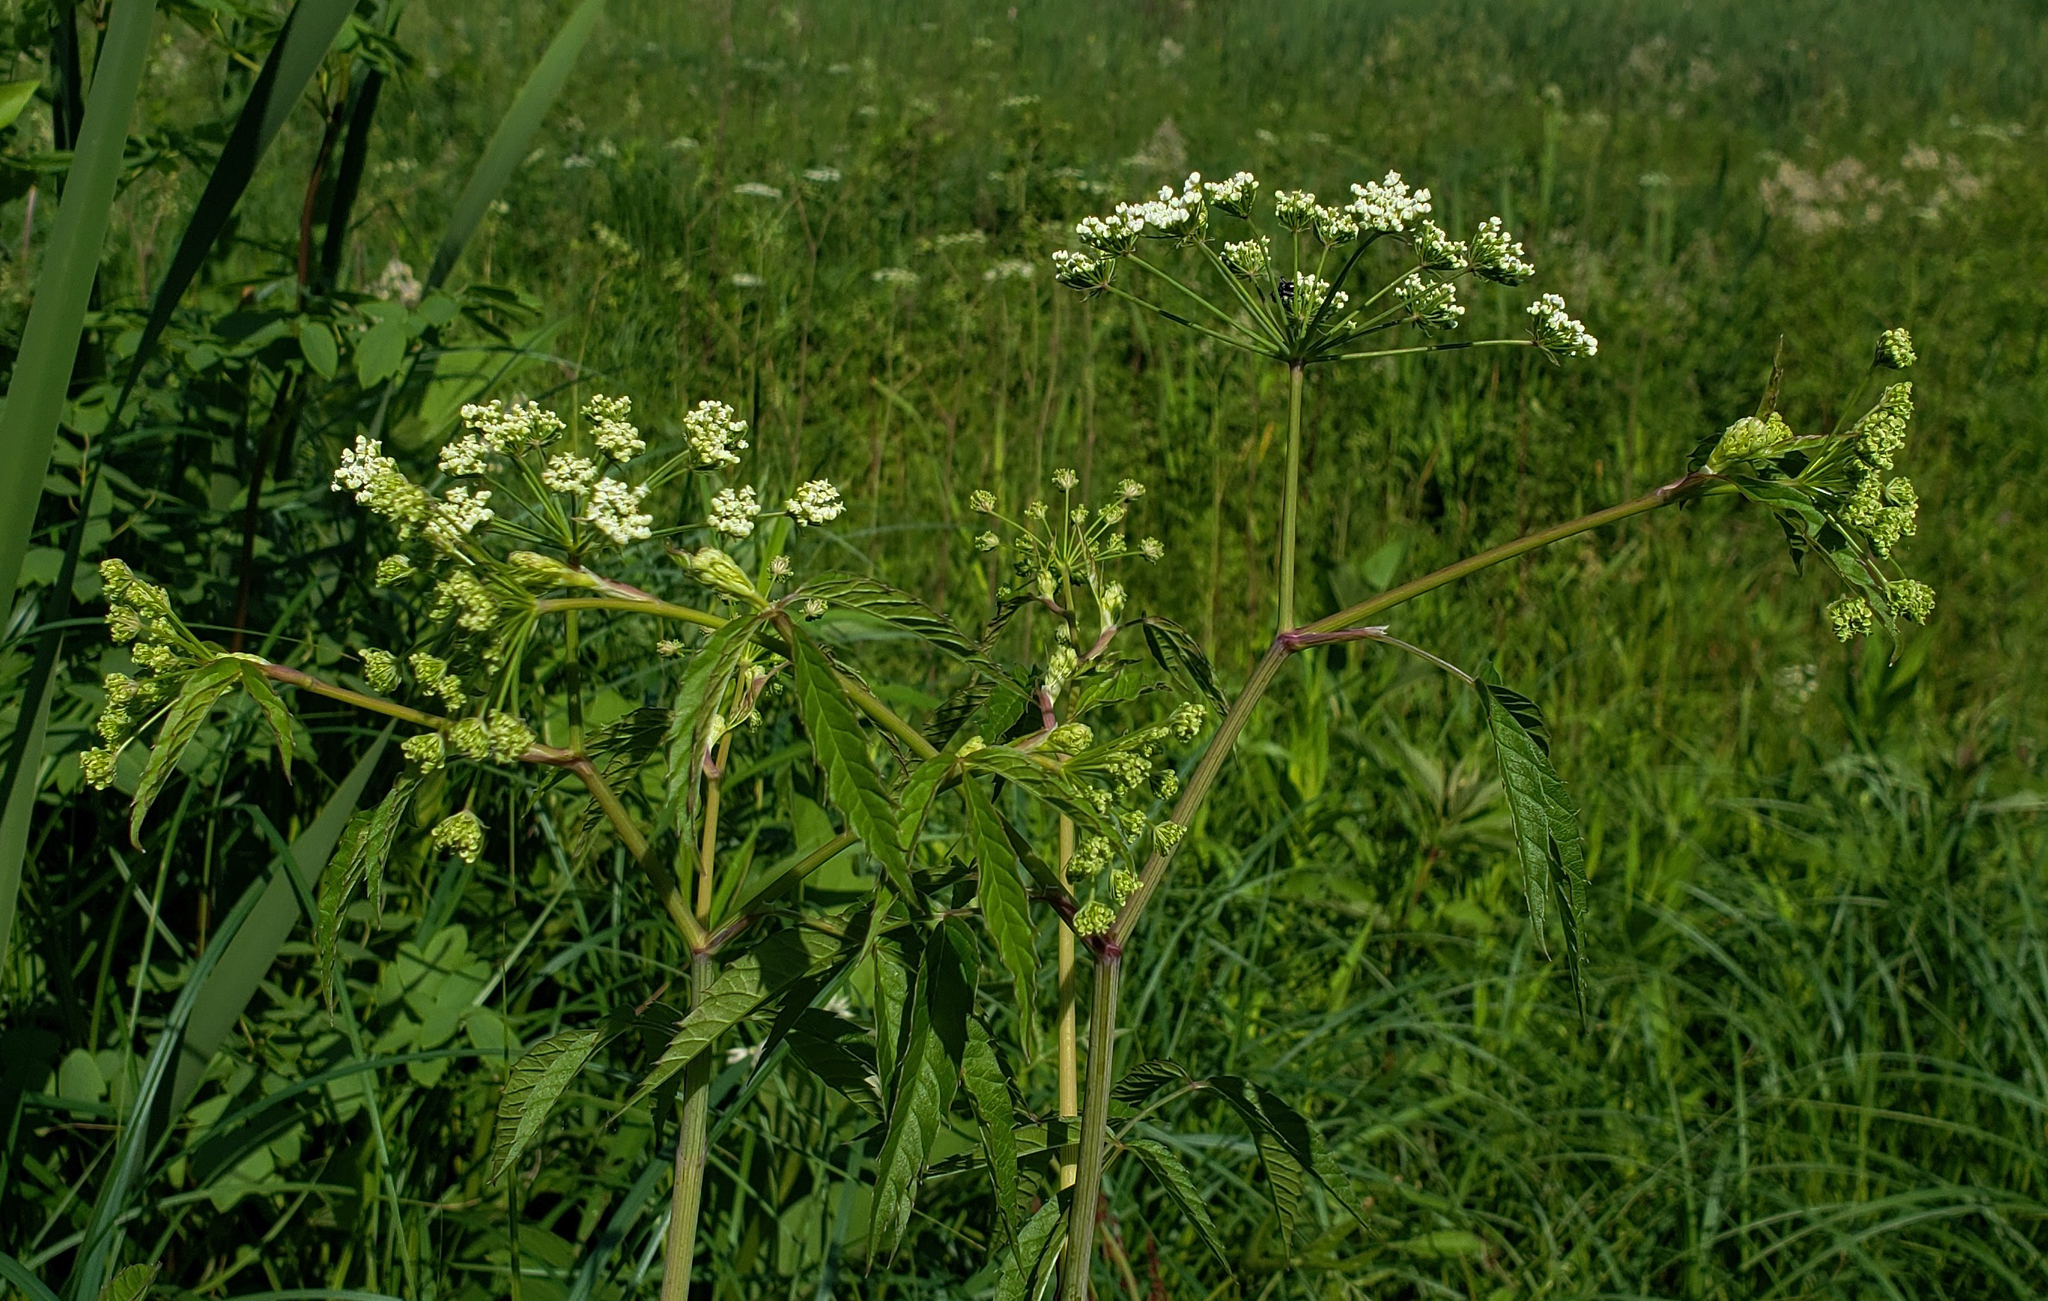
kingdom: Plantae
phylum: Tracheophyta
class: Magnoliopsida
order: Apiales
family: Apiaceae
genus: Cicuta
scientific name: Cicuta maculata
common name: Spotted cowbane
